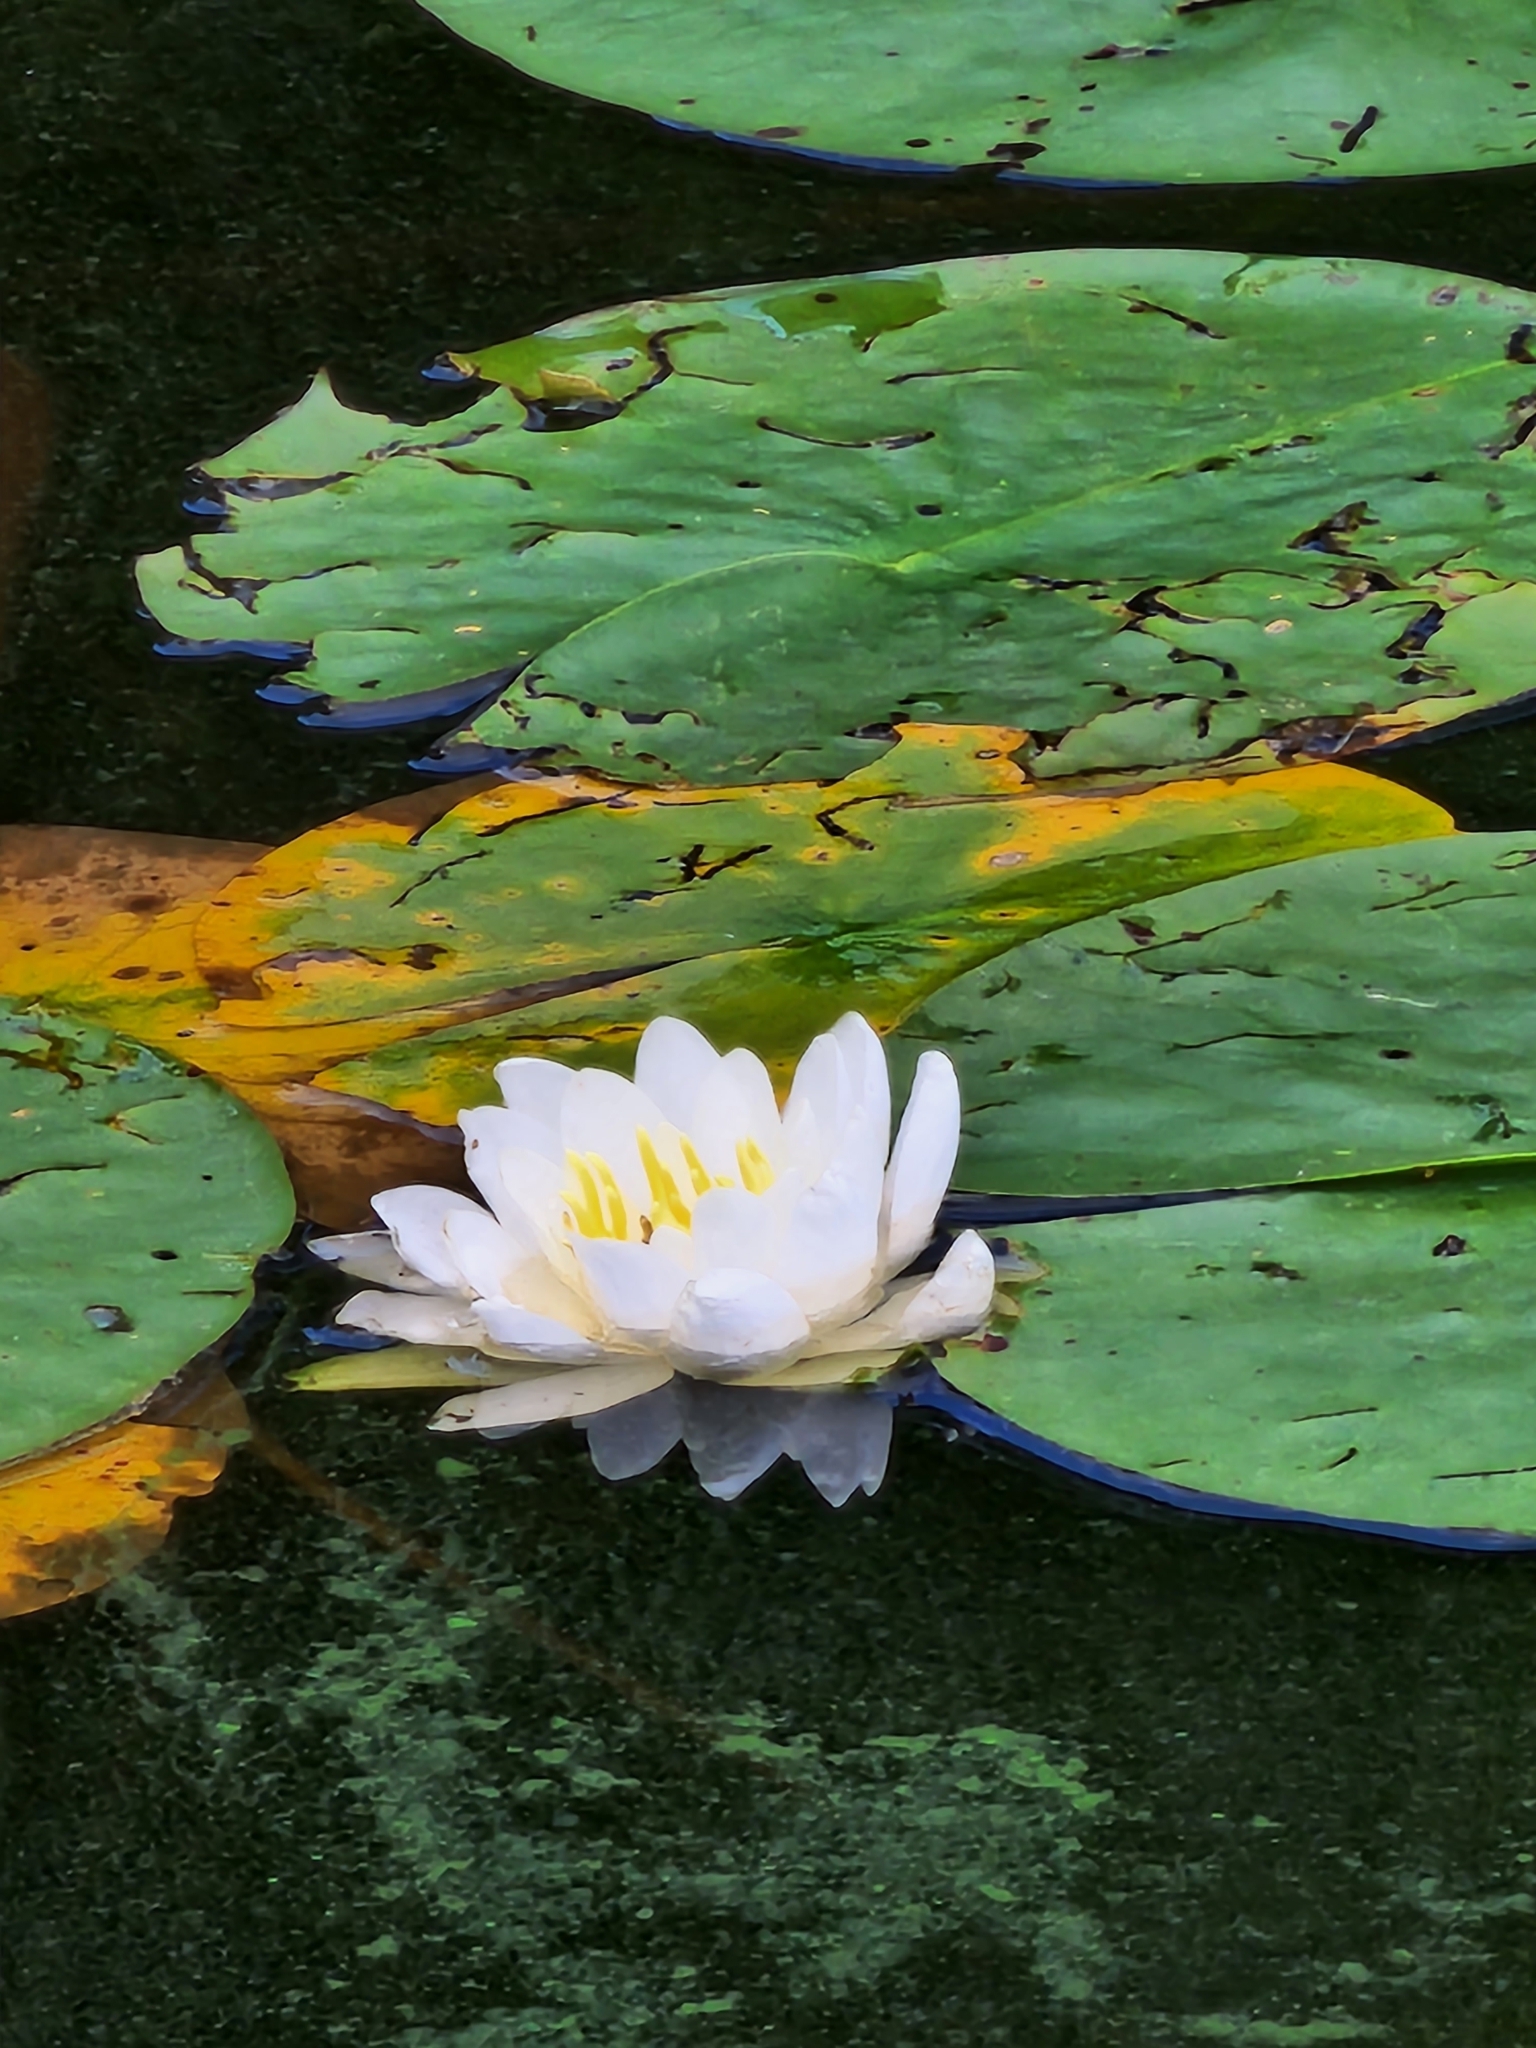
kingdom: Plantae
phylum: Tracheophyta
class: Magnoliopsida
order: Nymphaeales
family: Nymphaeaceae
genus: Nymphaea
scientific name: Nymphaea odorata
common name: Fragrant water-lily
